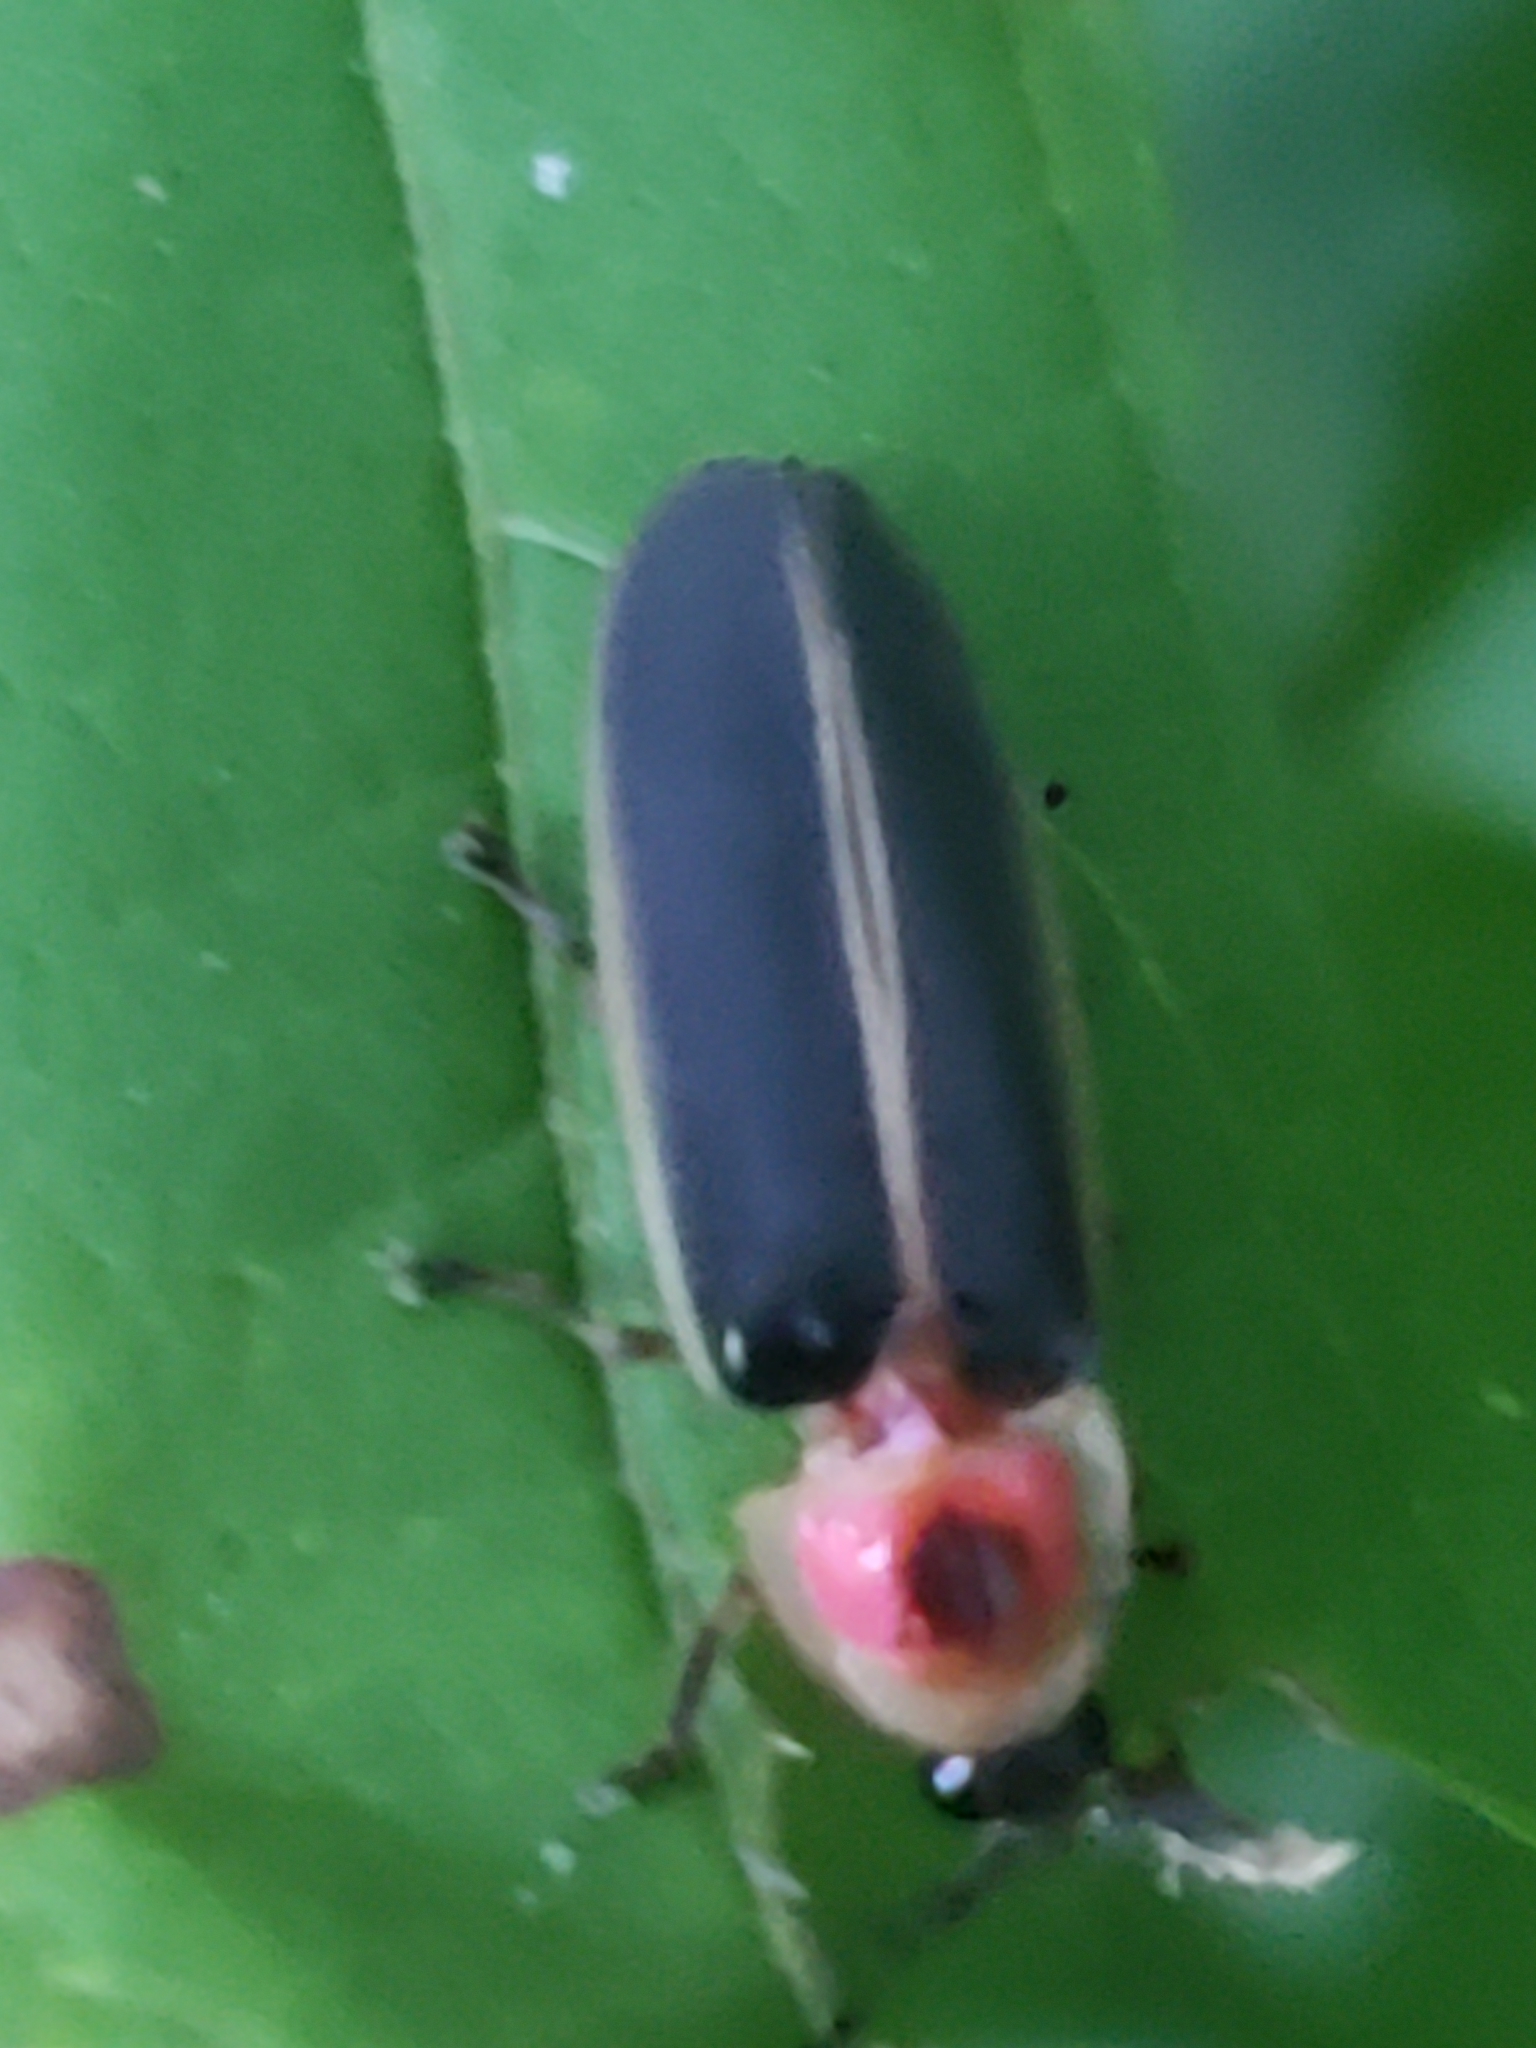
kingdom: Animalia
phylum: Arthropoda
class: Insecta
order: Coleoptera
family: Lampyridae
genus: Photinus
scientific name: Photinus pyralis
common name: Big dipper firefly
